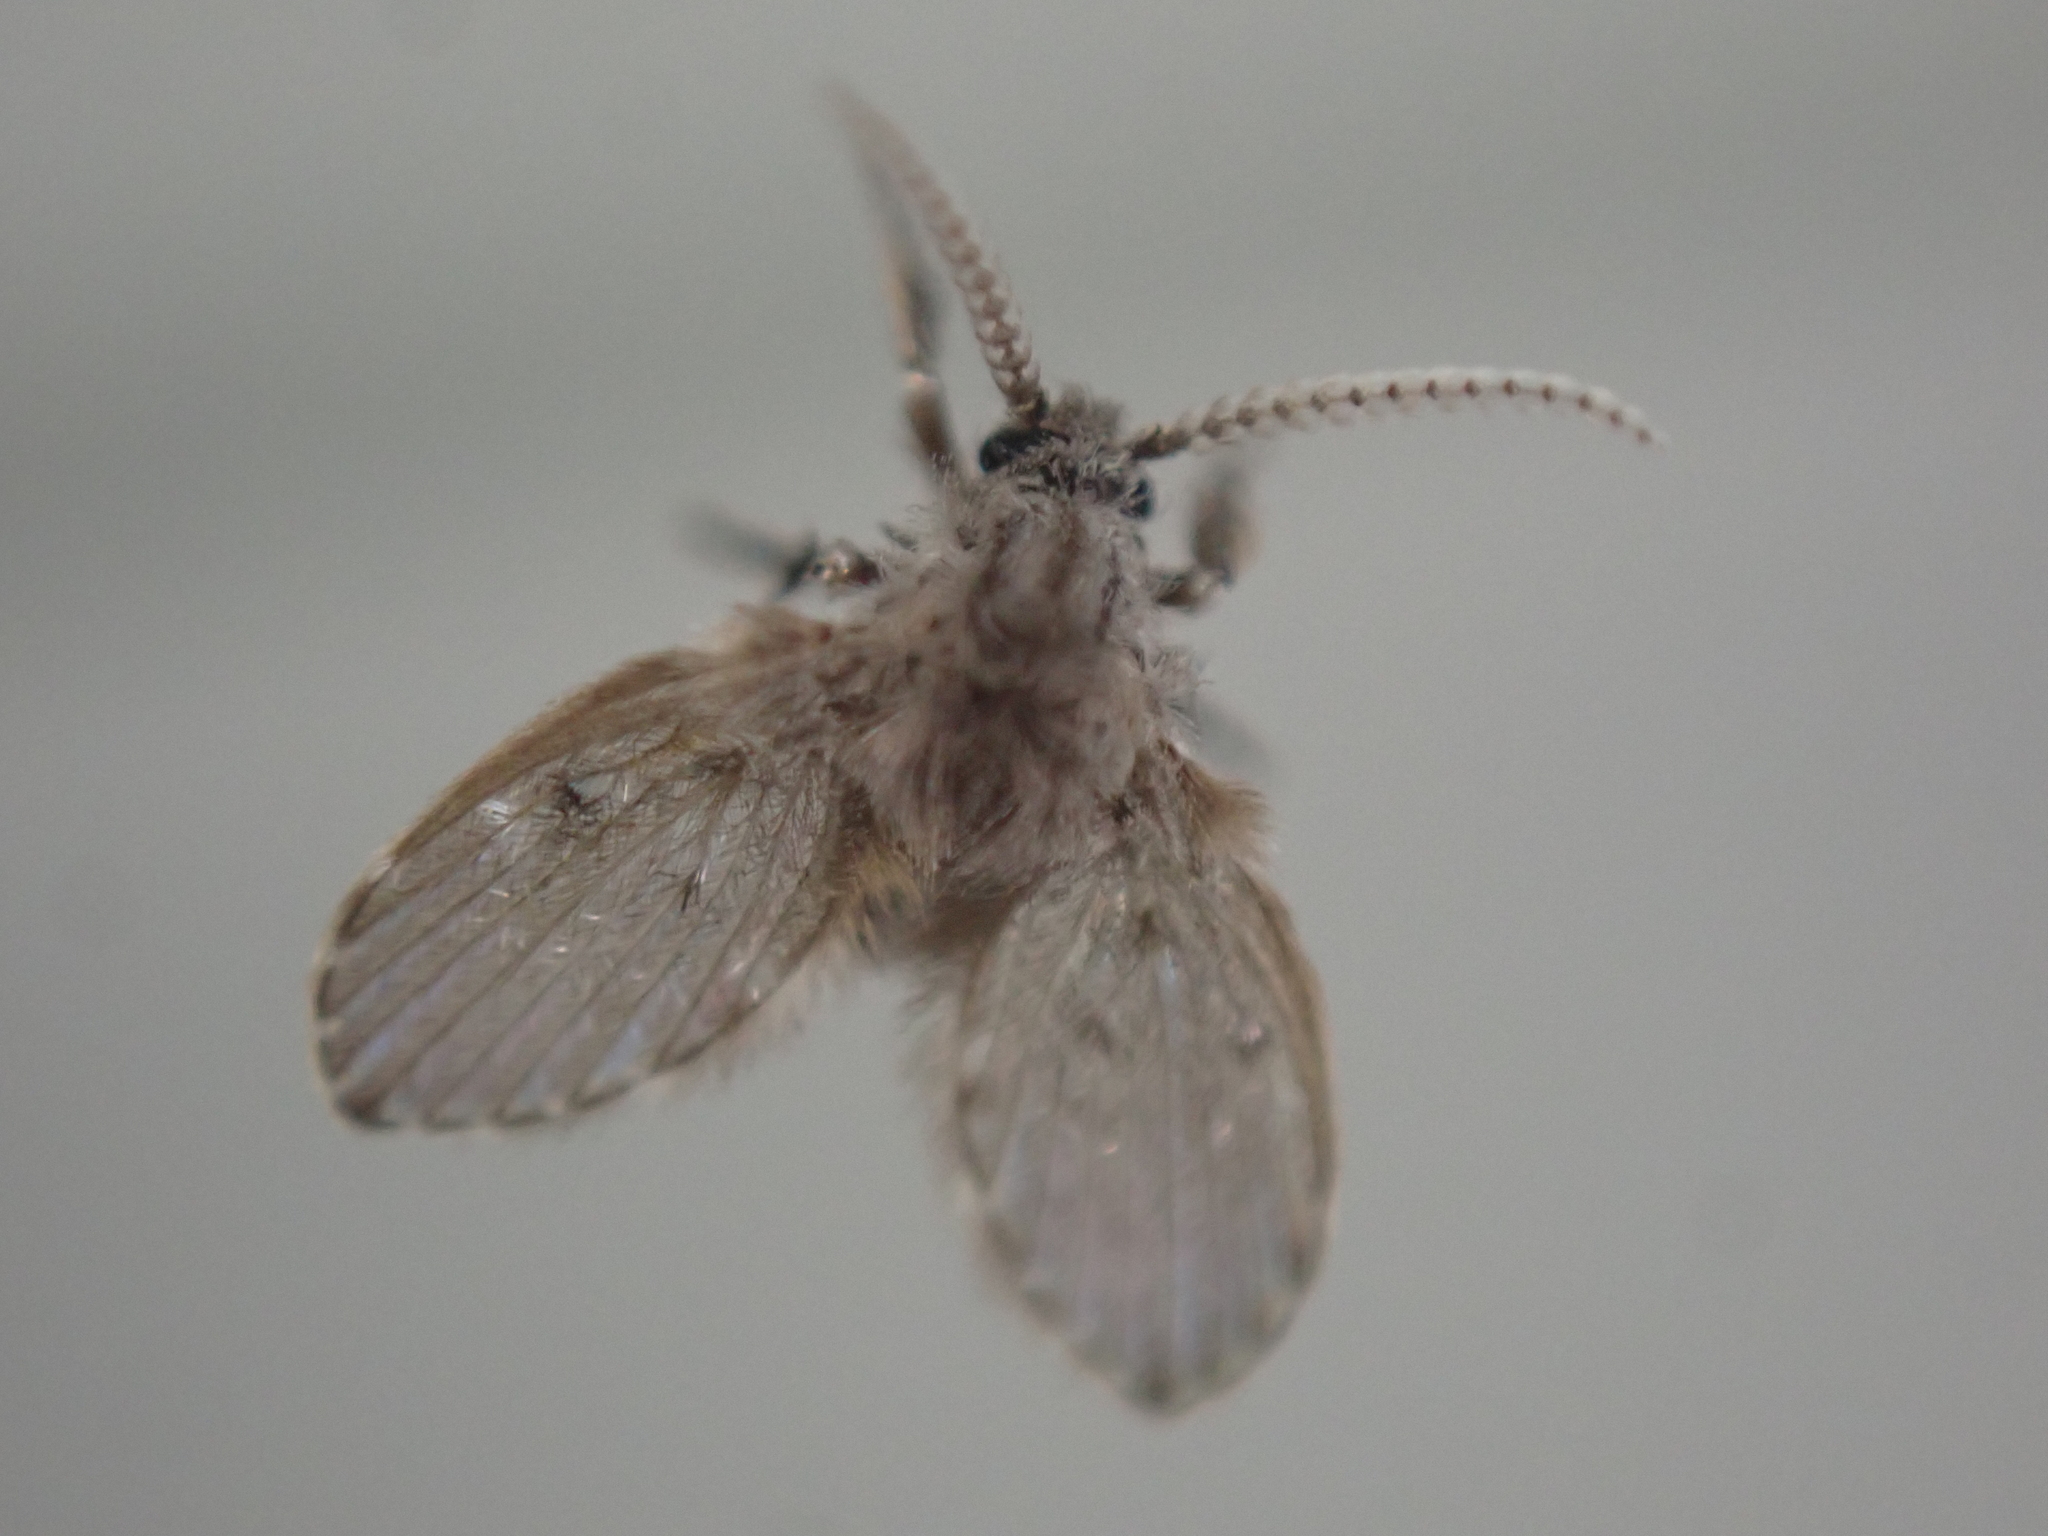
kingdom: Animalia
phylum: Arthropoda
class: Insecta
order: Diptera
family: Psychodidae
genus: Clogmia
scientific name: Clogmia albipunctatus
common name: White-spotted moth fly
